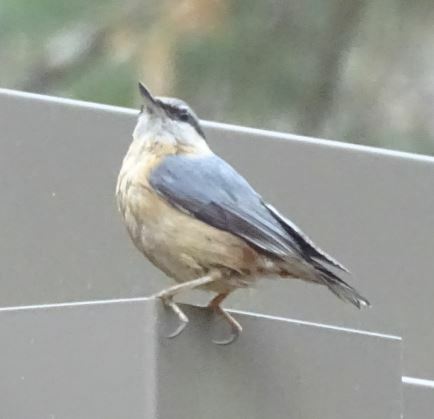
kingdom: Animalia
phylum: Chordata
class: Aves
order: Passeriformes
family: Sittidae
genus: Sitta
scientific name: Sitta europaea
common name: Eurasian nuthatch
